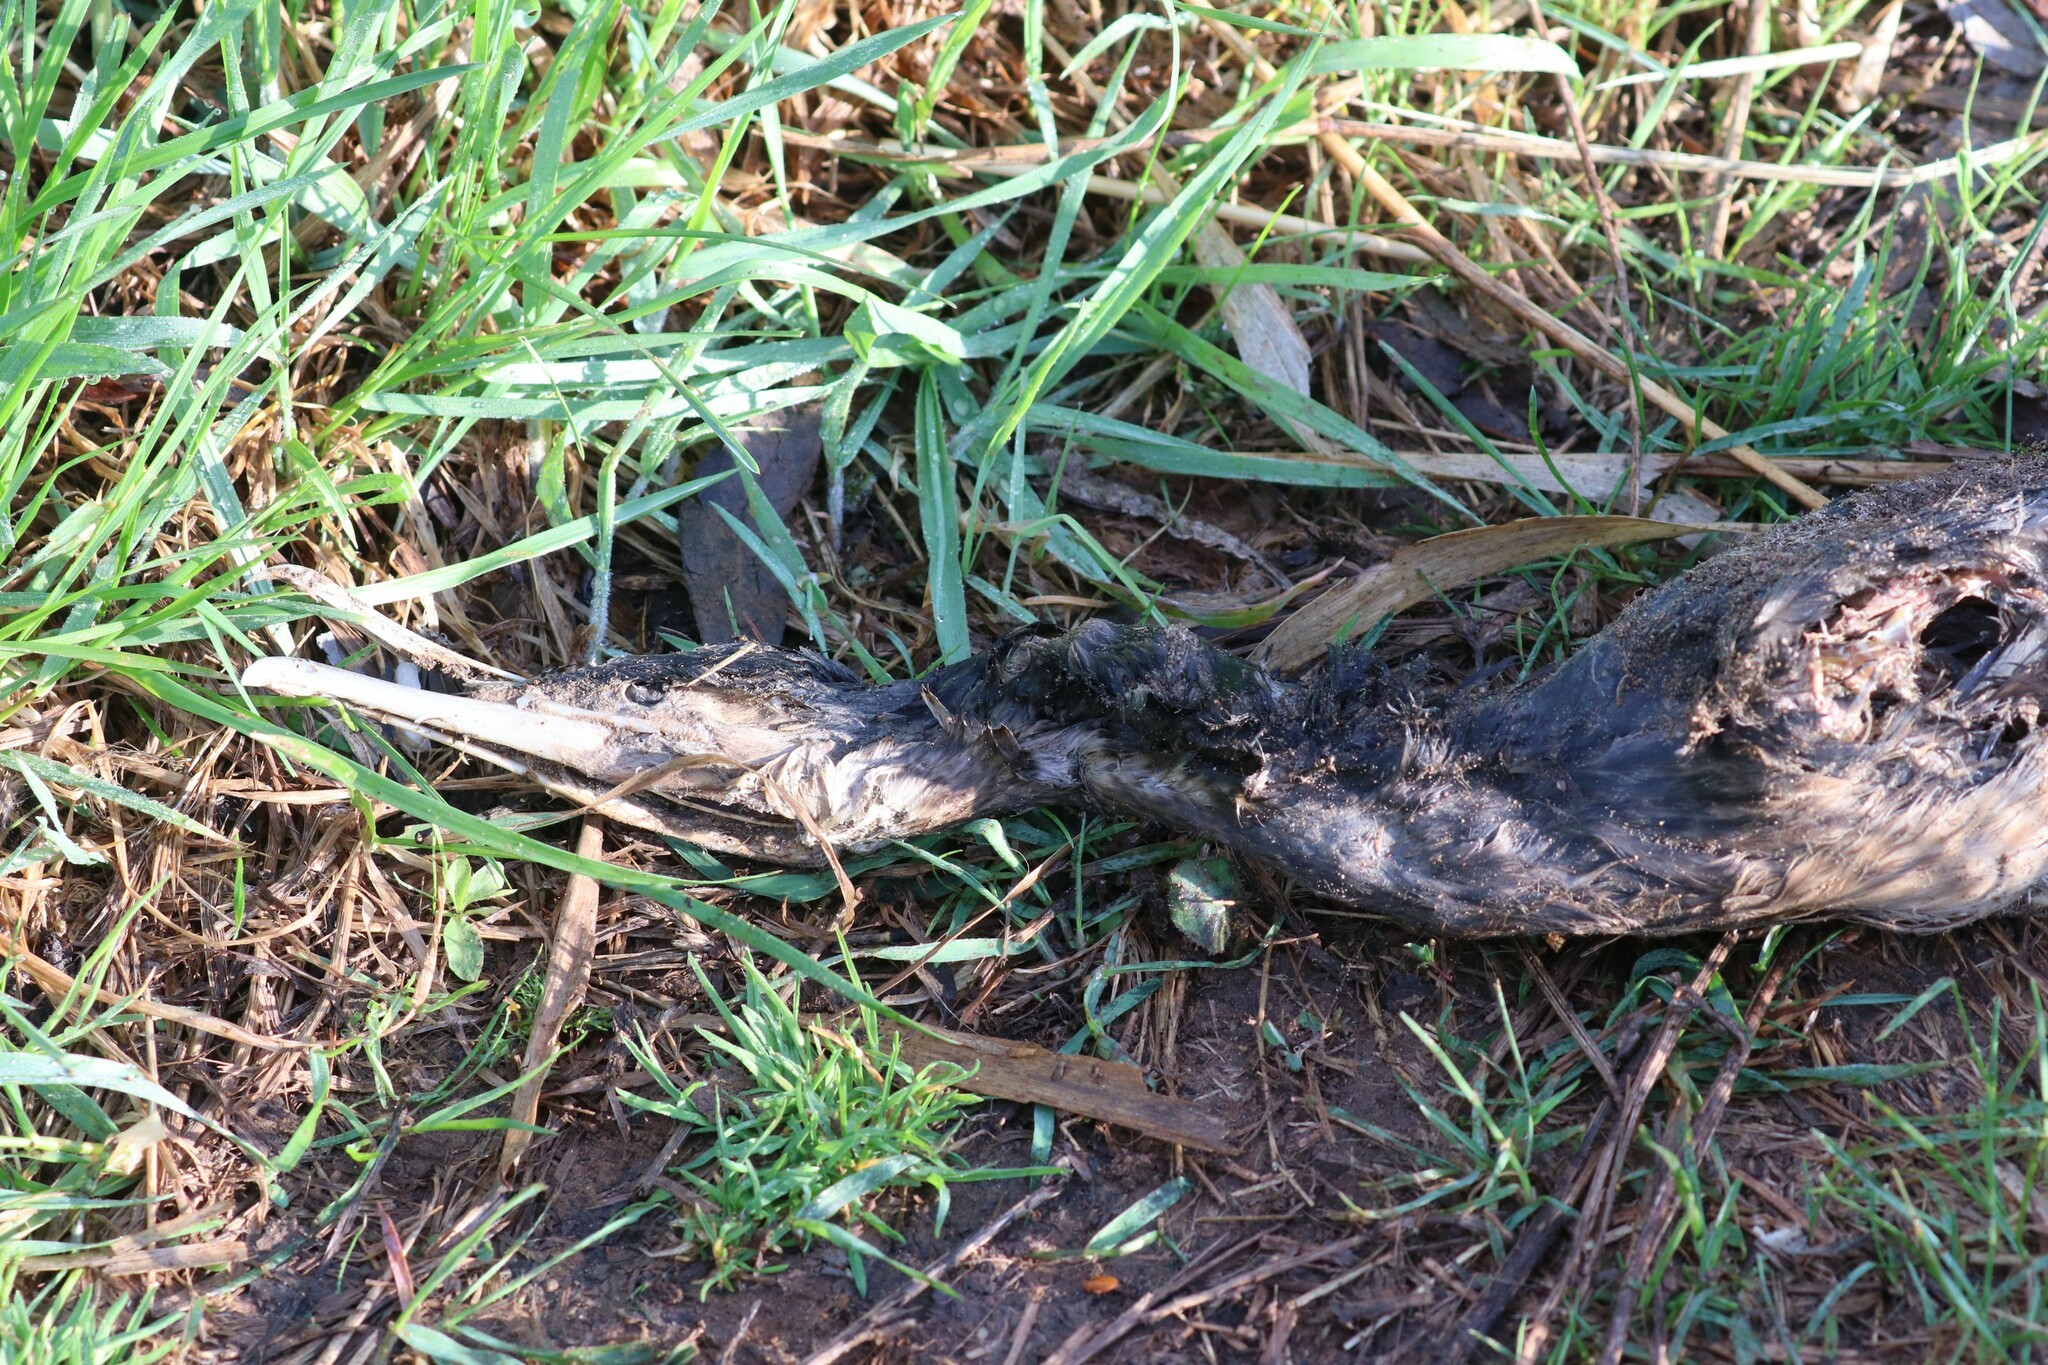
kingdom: Animalia
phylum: Chordata
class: Aves
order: Suliformes
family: Phalacrocoracidae
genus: Phalacrocorax
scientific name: Phalacrocorax carbo
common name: Great cormorant
